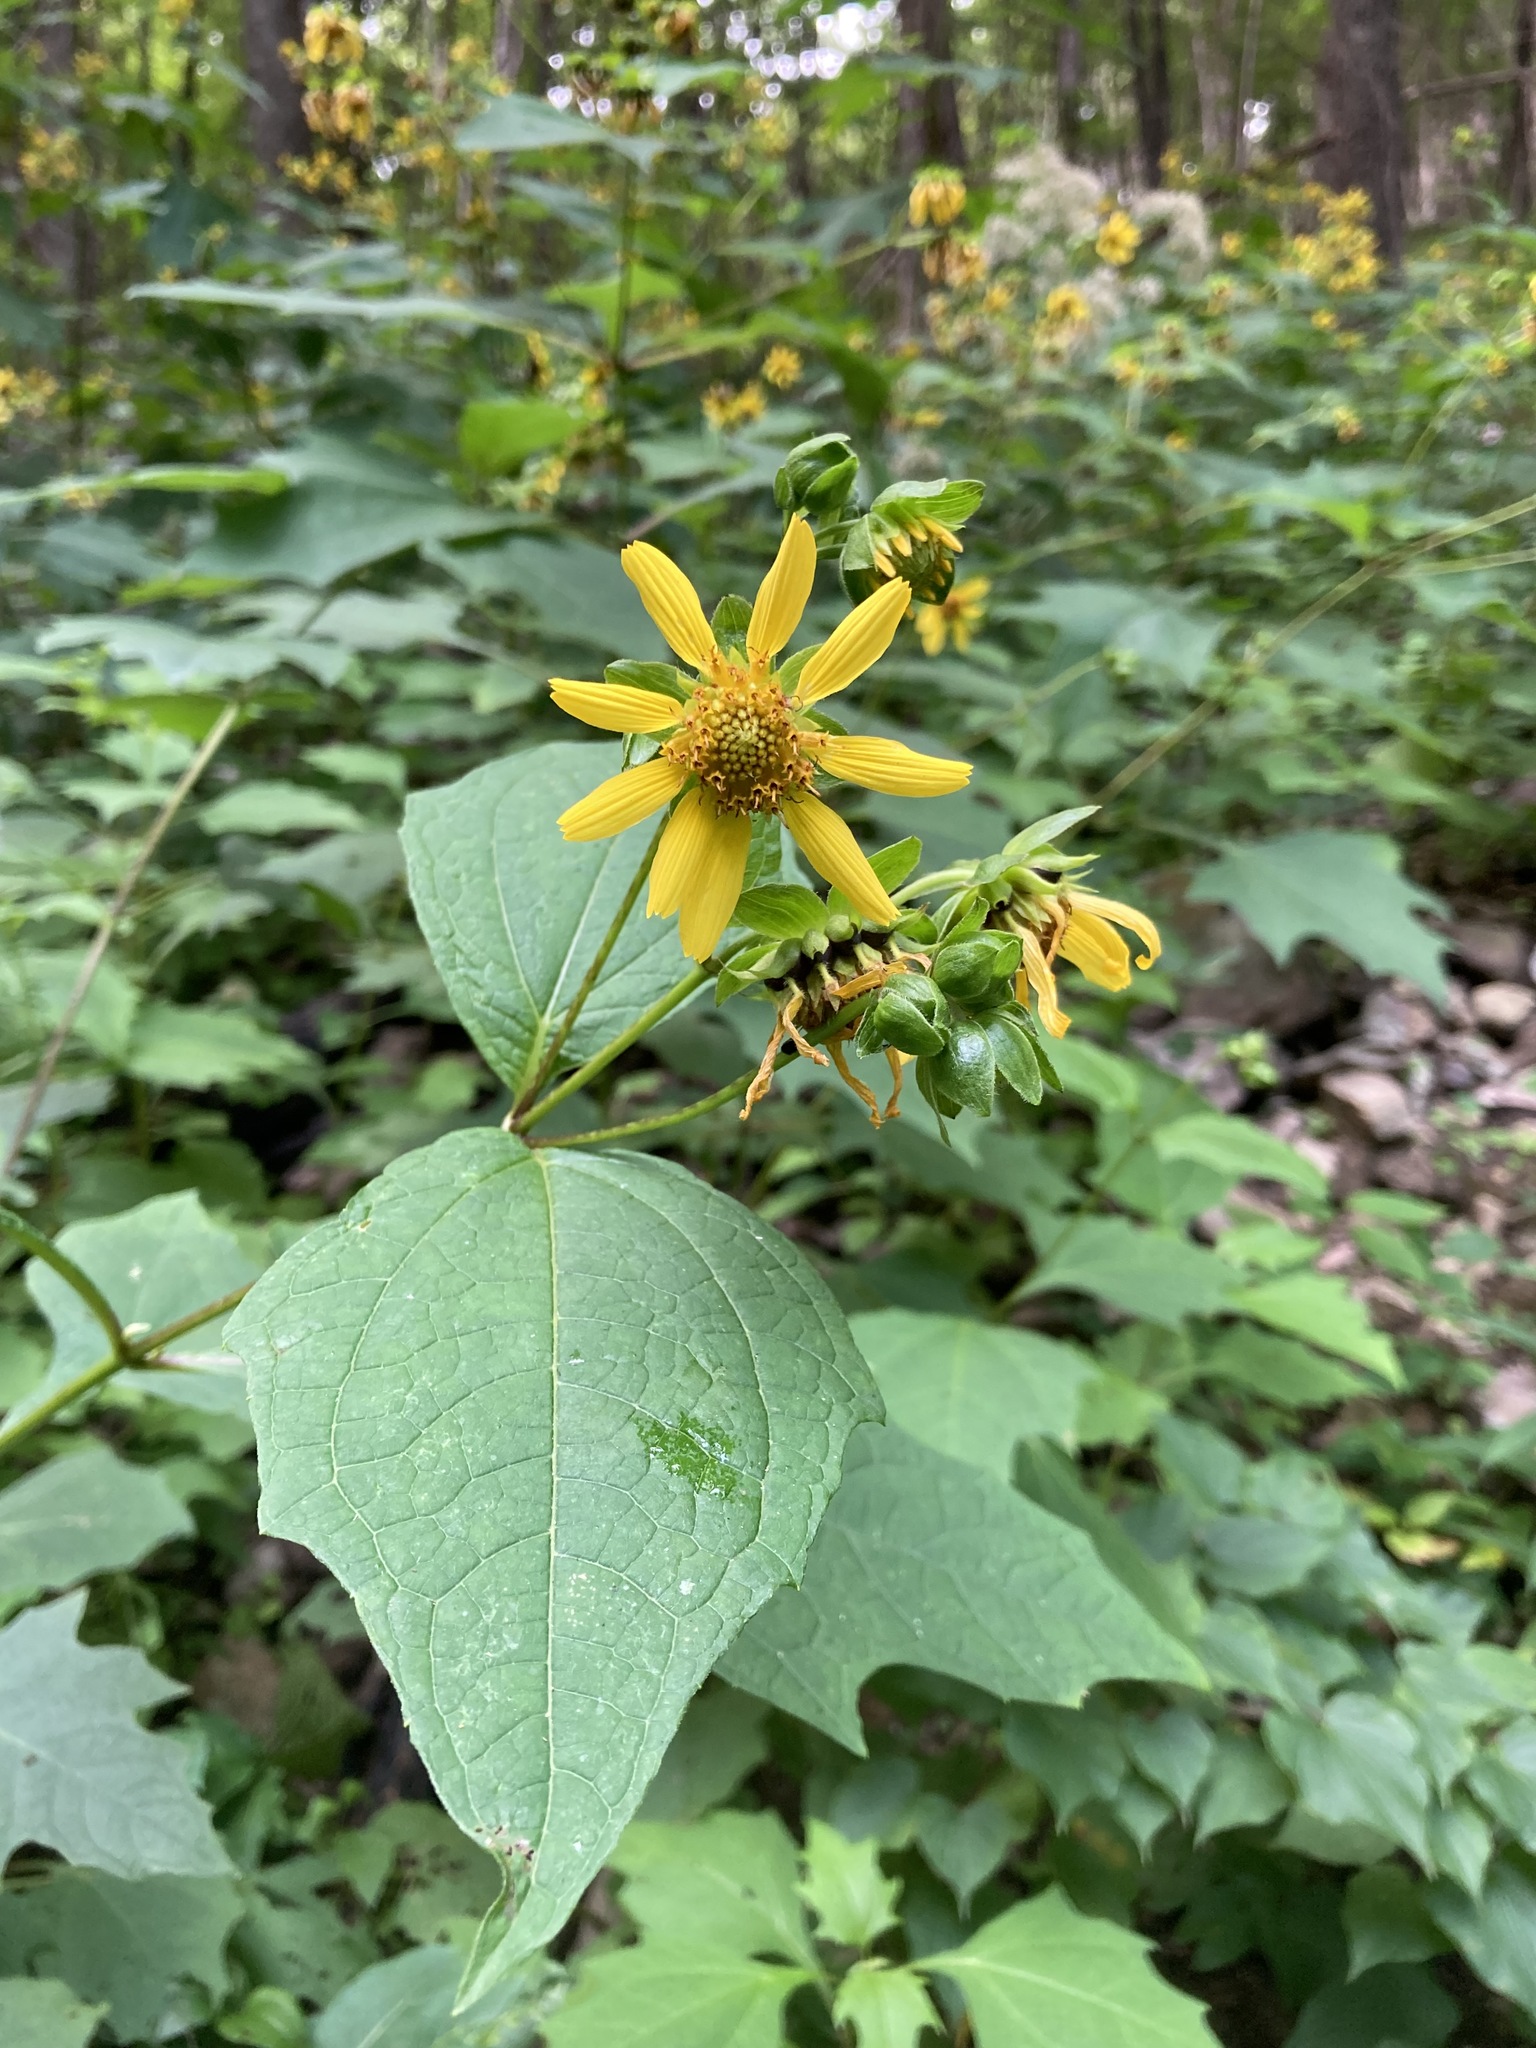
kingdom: Plantae
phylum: Tracheophyta
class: Magnoliopsida
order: Asterales
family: Asteraceae
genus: Smallanthus
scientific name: Smallanthus uvedalia
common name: Bear's-foot
